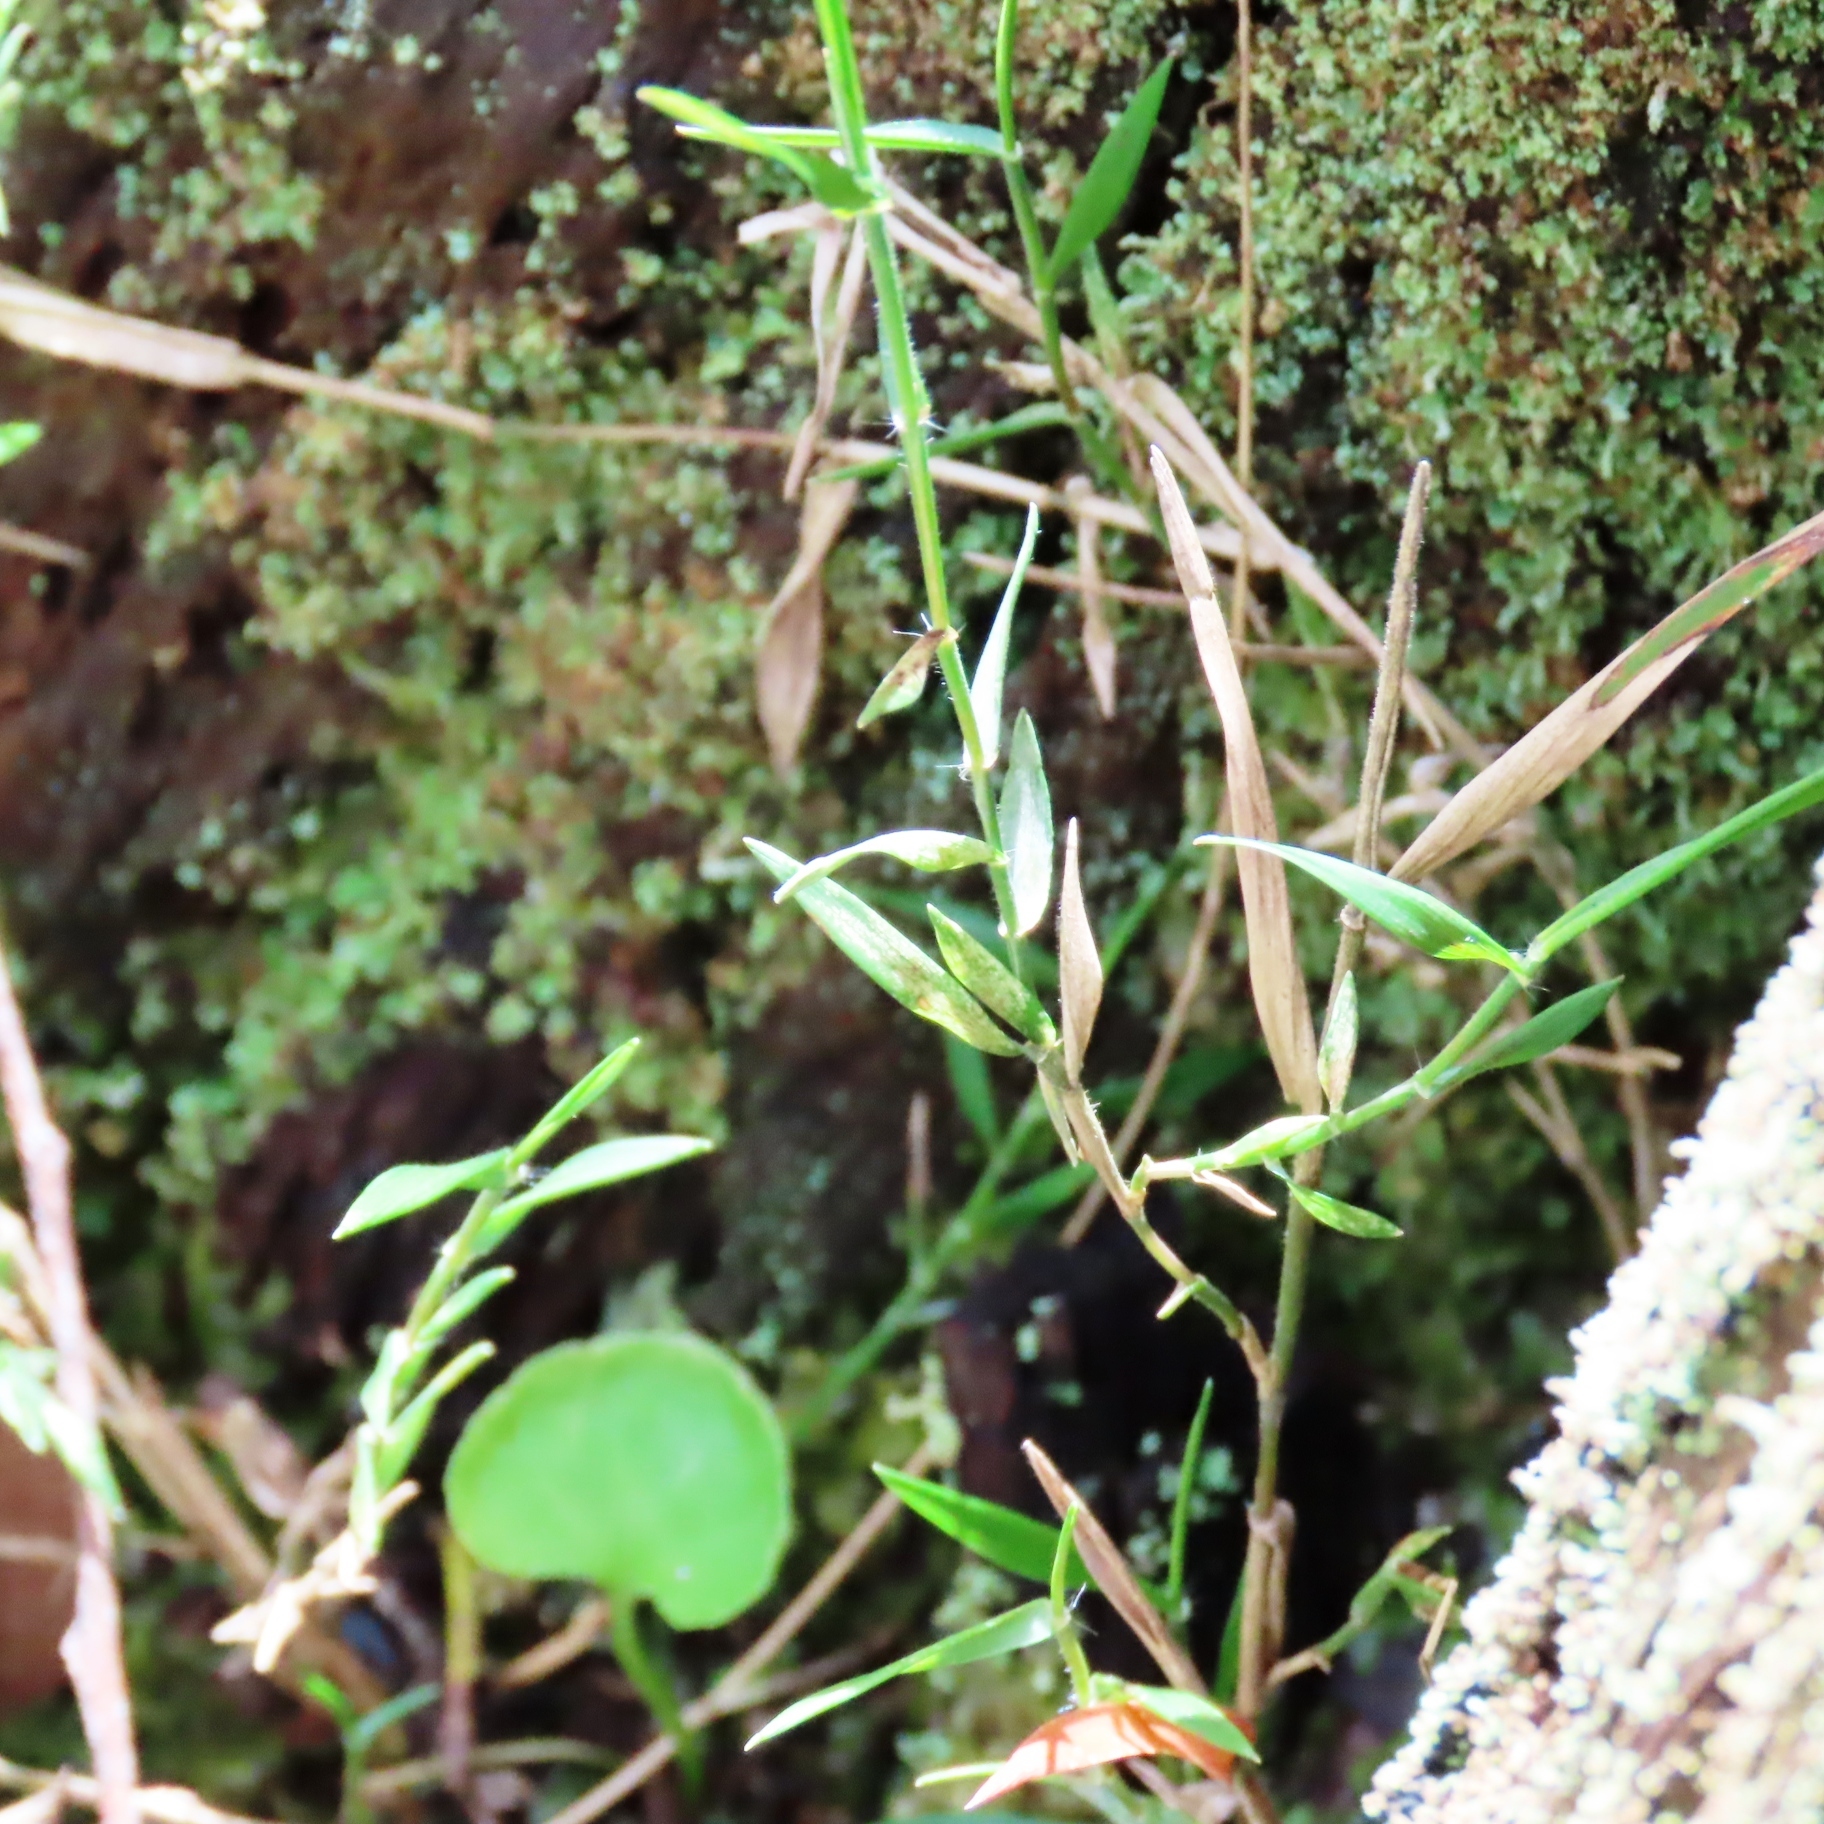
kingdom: Plantae
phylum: Tracheophyta
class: Liliopsida
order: Poales
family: Poaceae
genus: Tetrarrhena
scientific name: Tetrarrhena distichophylla
